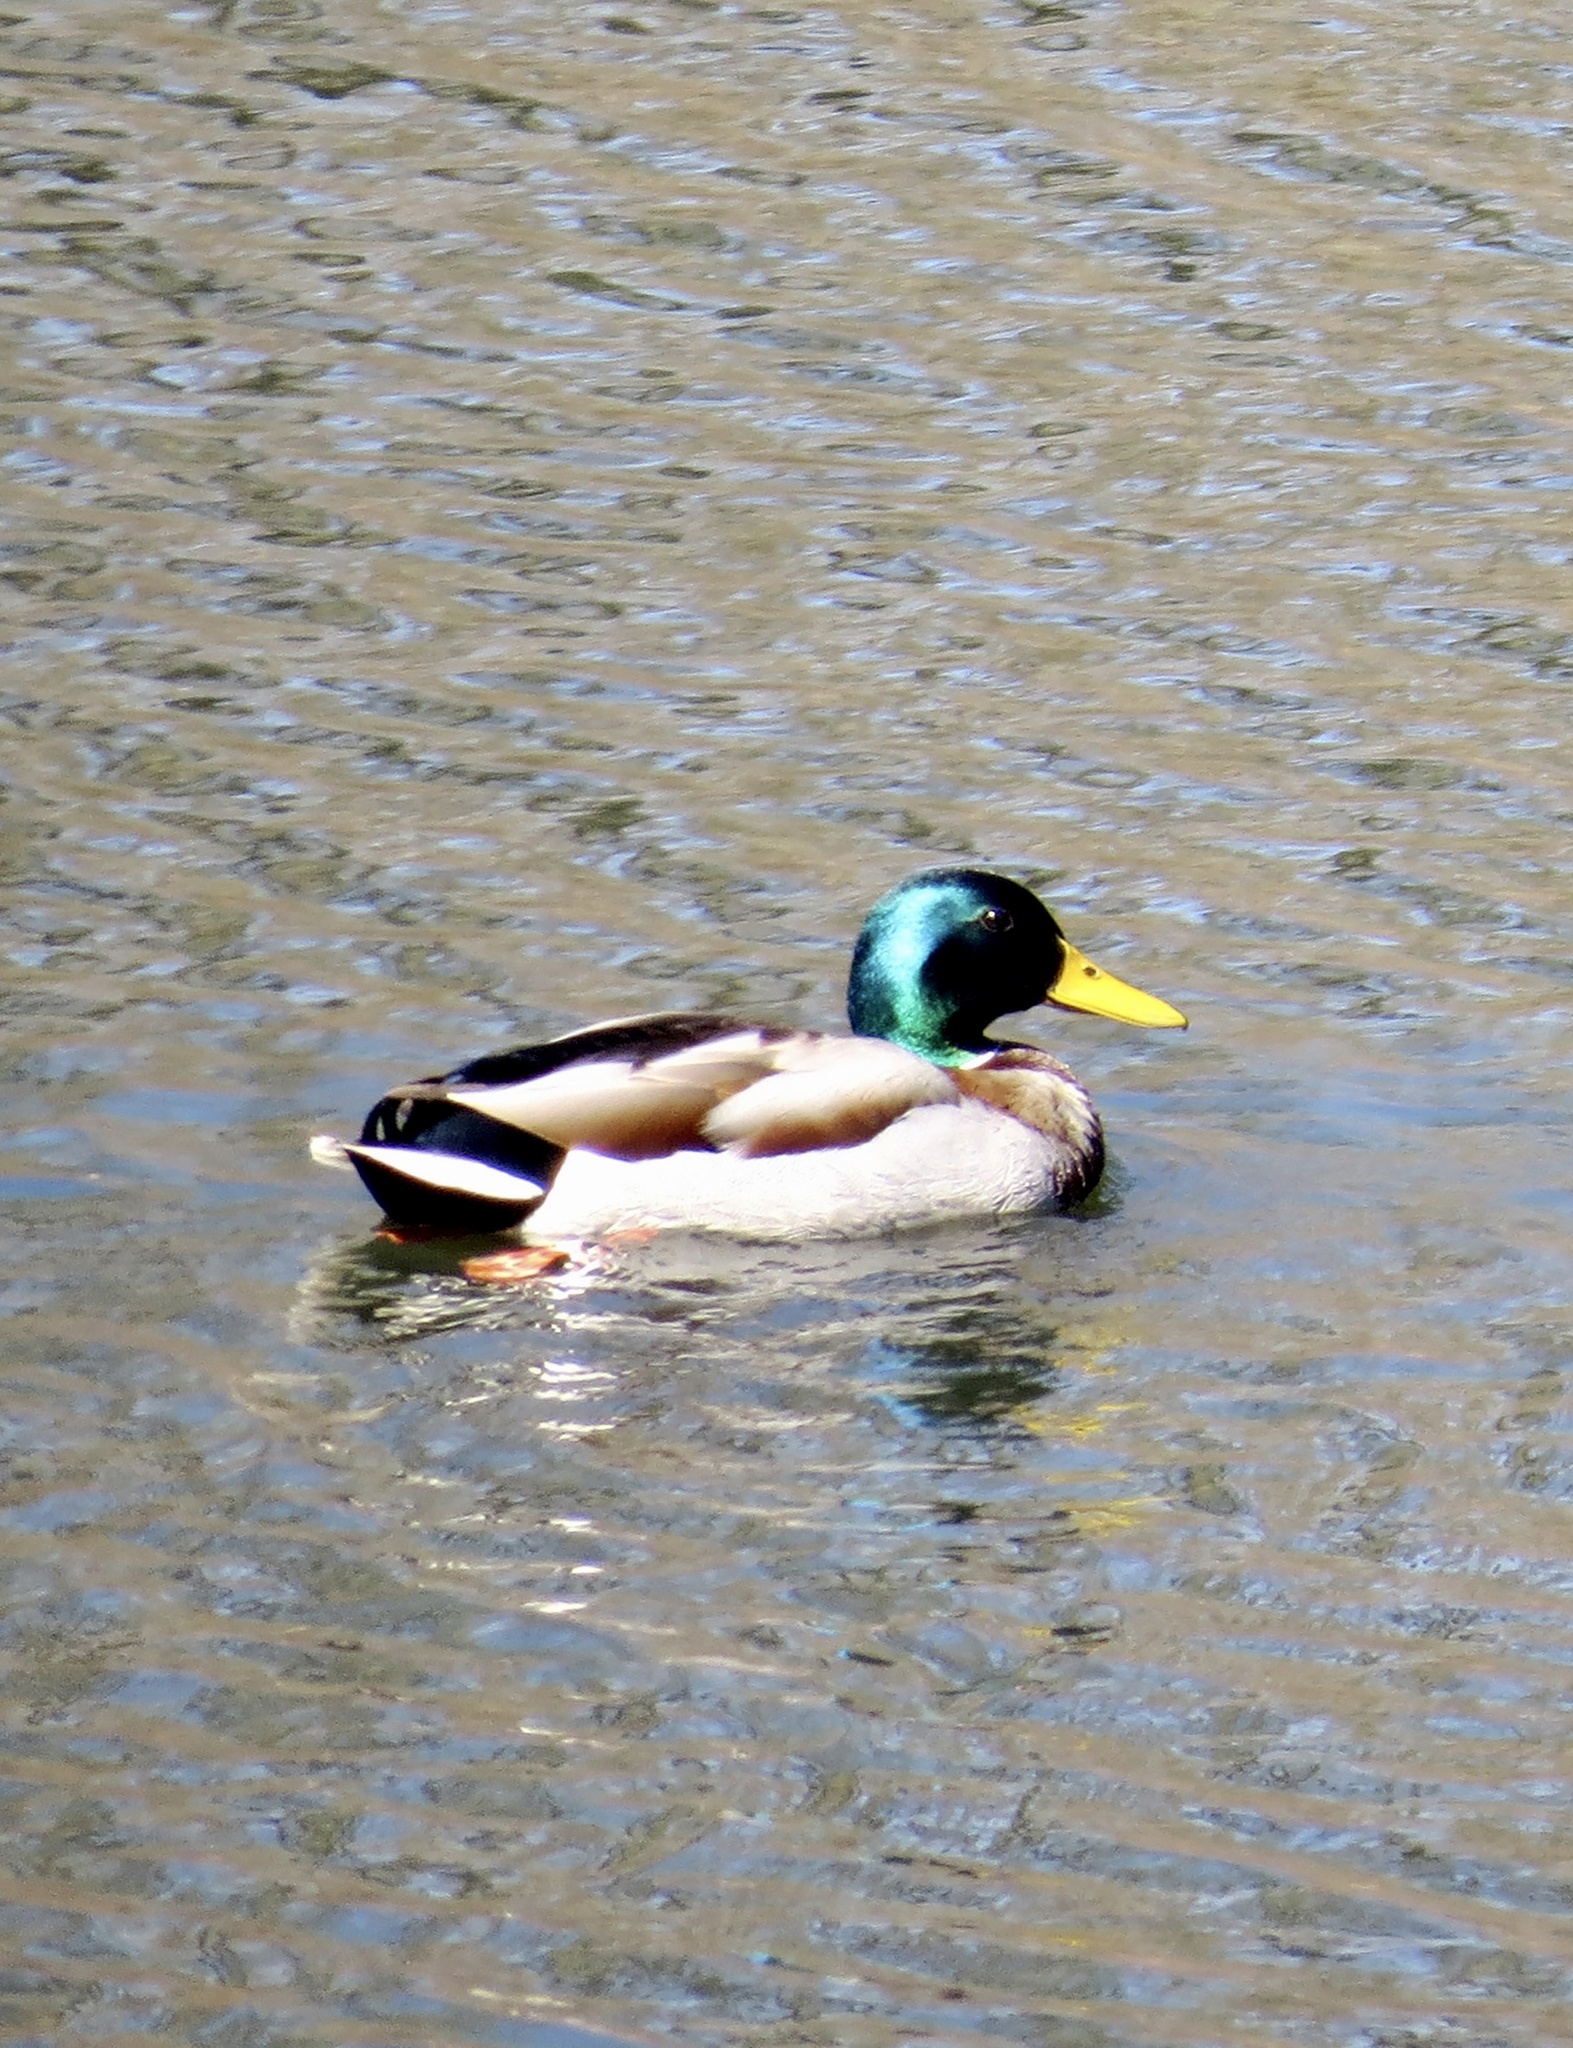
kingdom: Animalia
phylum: Chordata
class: Aves
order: Anseriformes
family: Anatidae
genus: Anas
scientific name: Anas platyrhynchos
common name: Mallard
